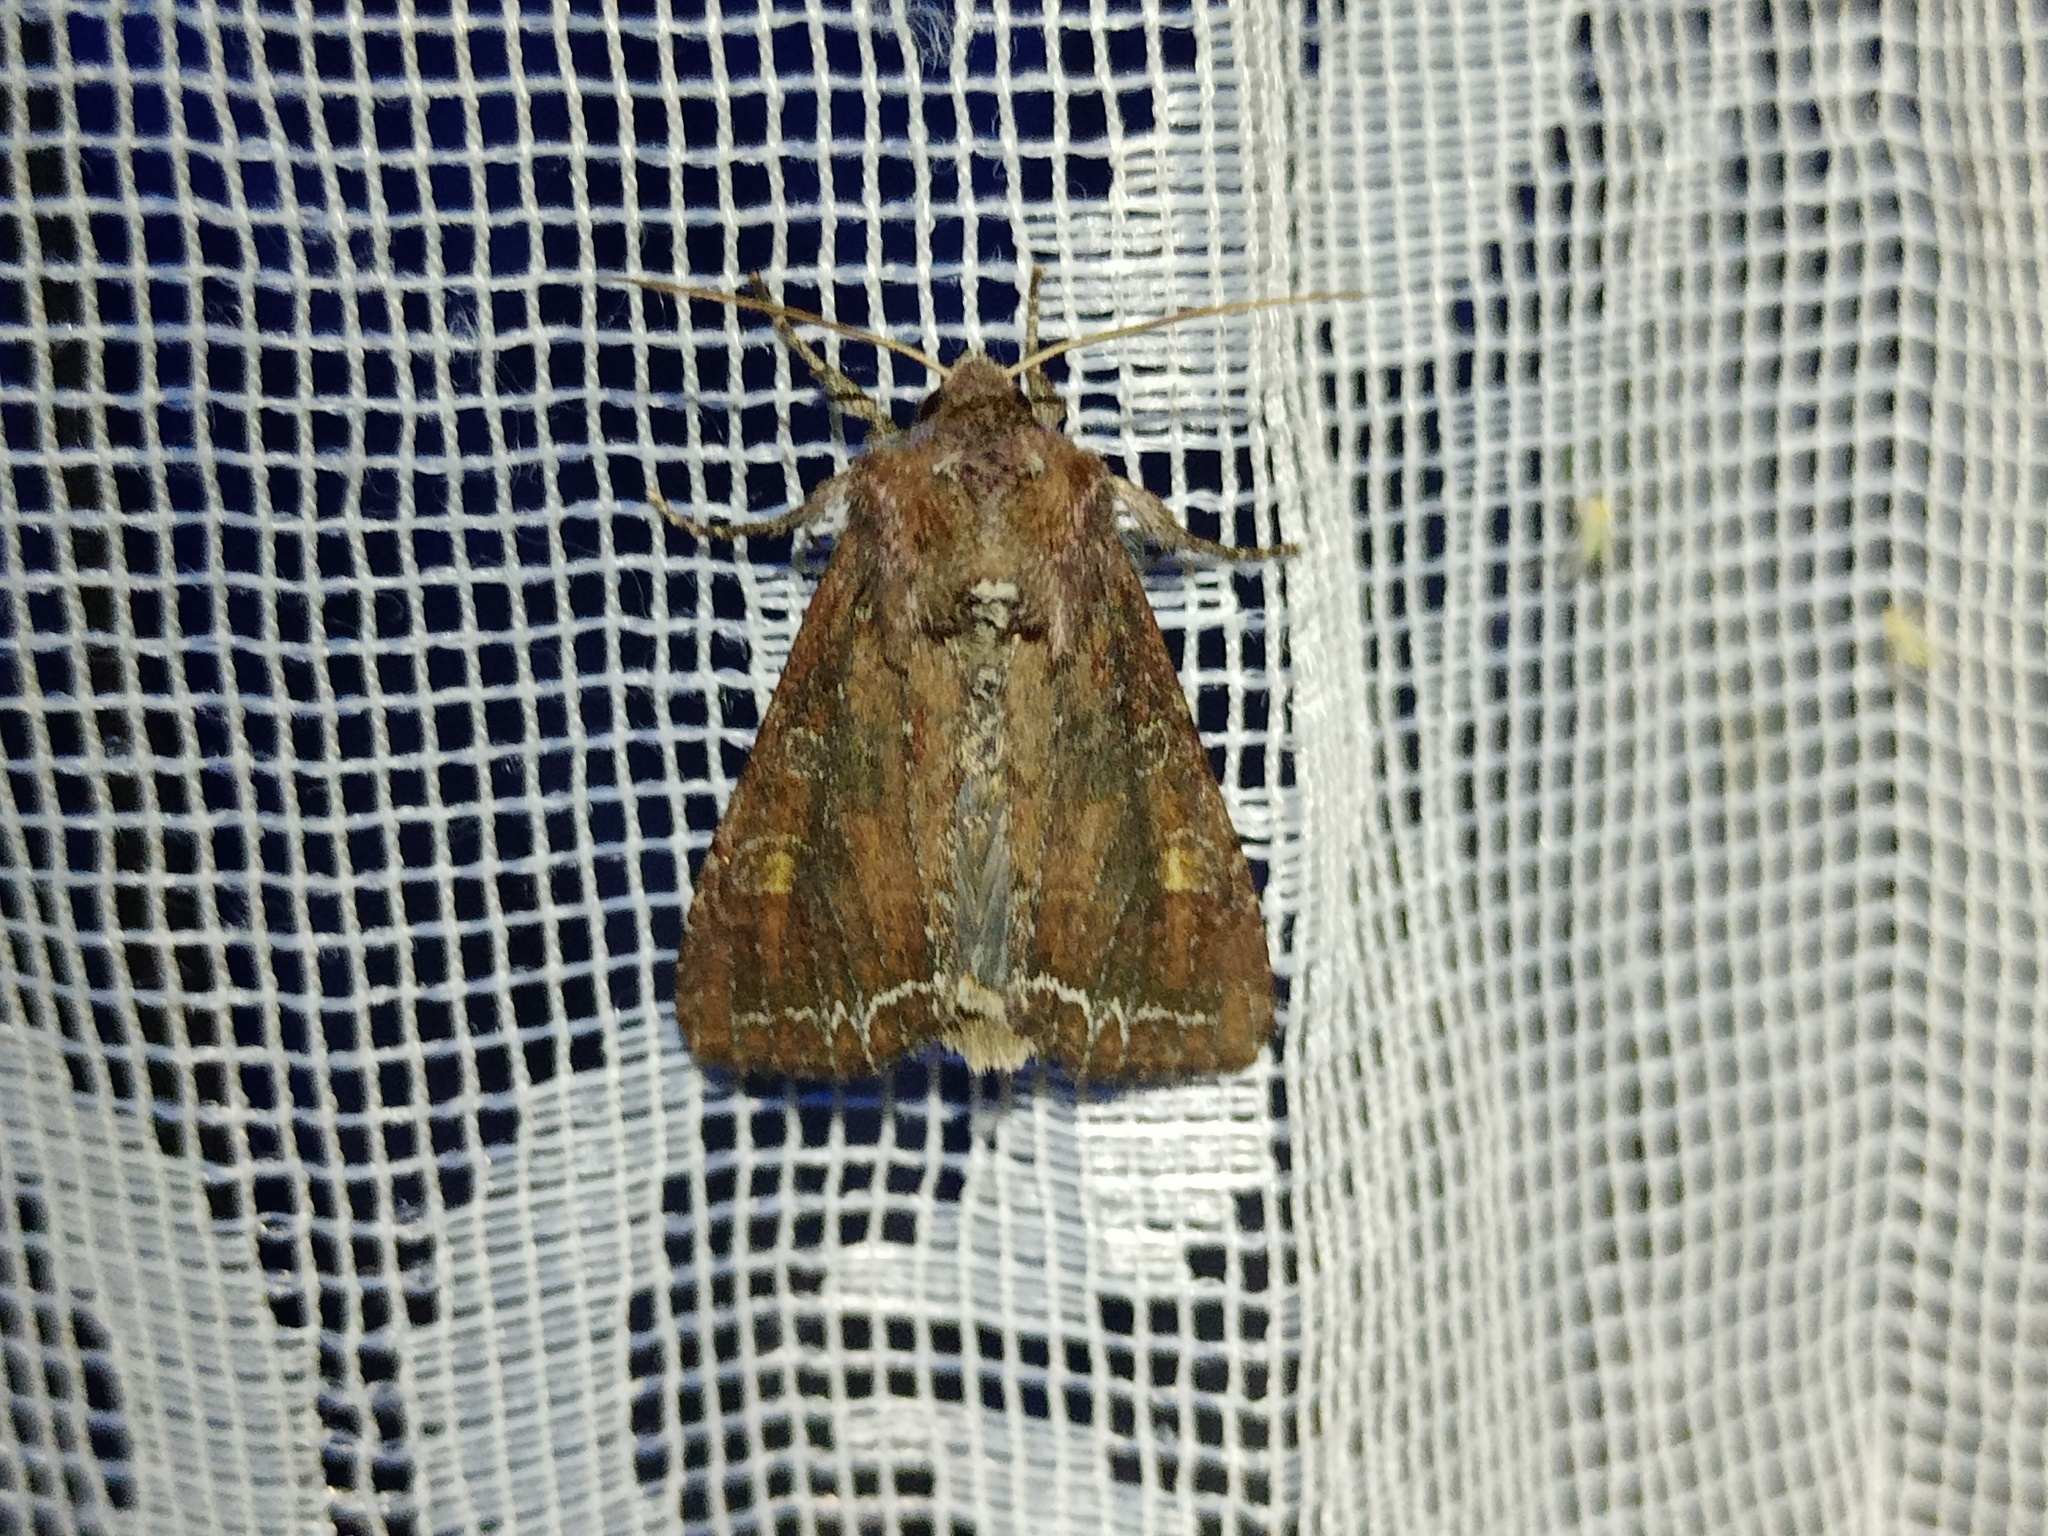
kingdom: Animalia
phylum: Arthropoda
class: Insecta
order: Lepidoptera
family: Noctuidae
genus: Lacanobia
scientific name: Lacanobia oleracea
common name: Bright-line brown-eye
